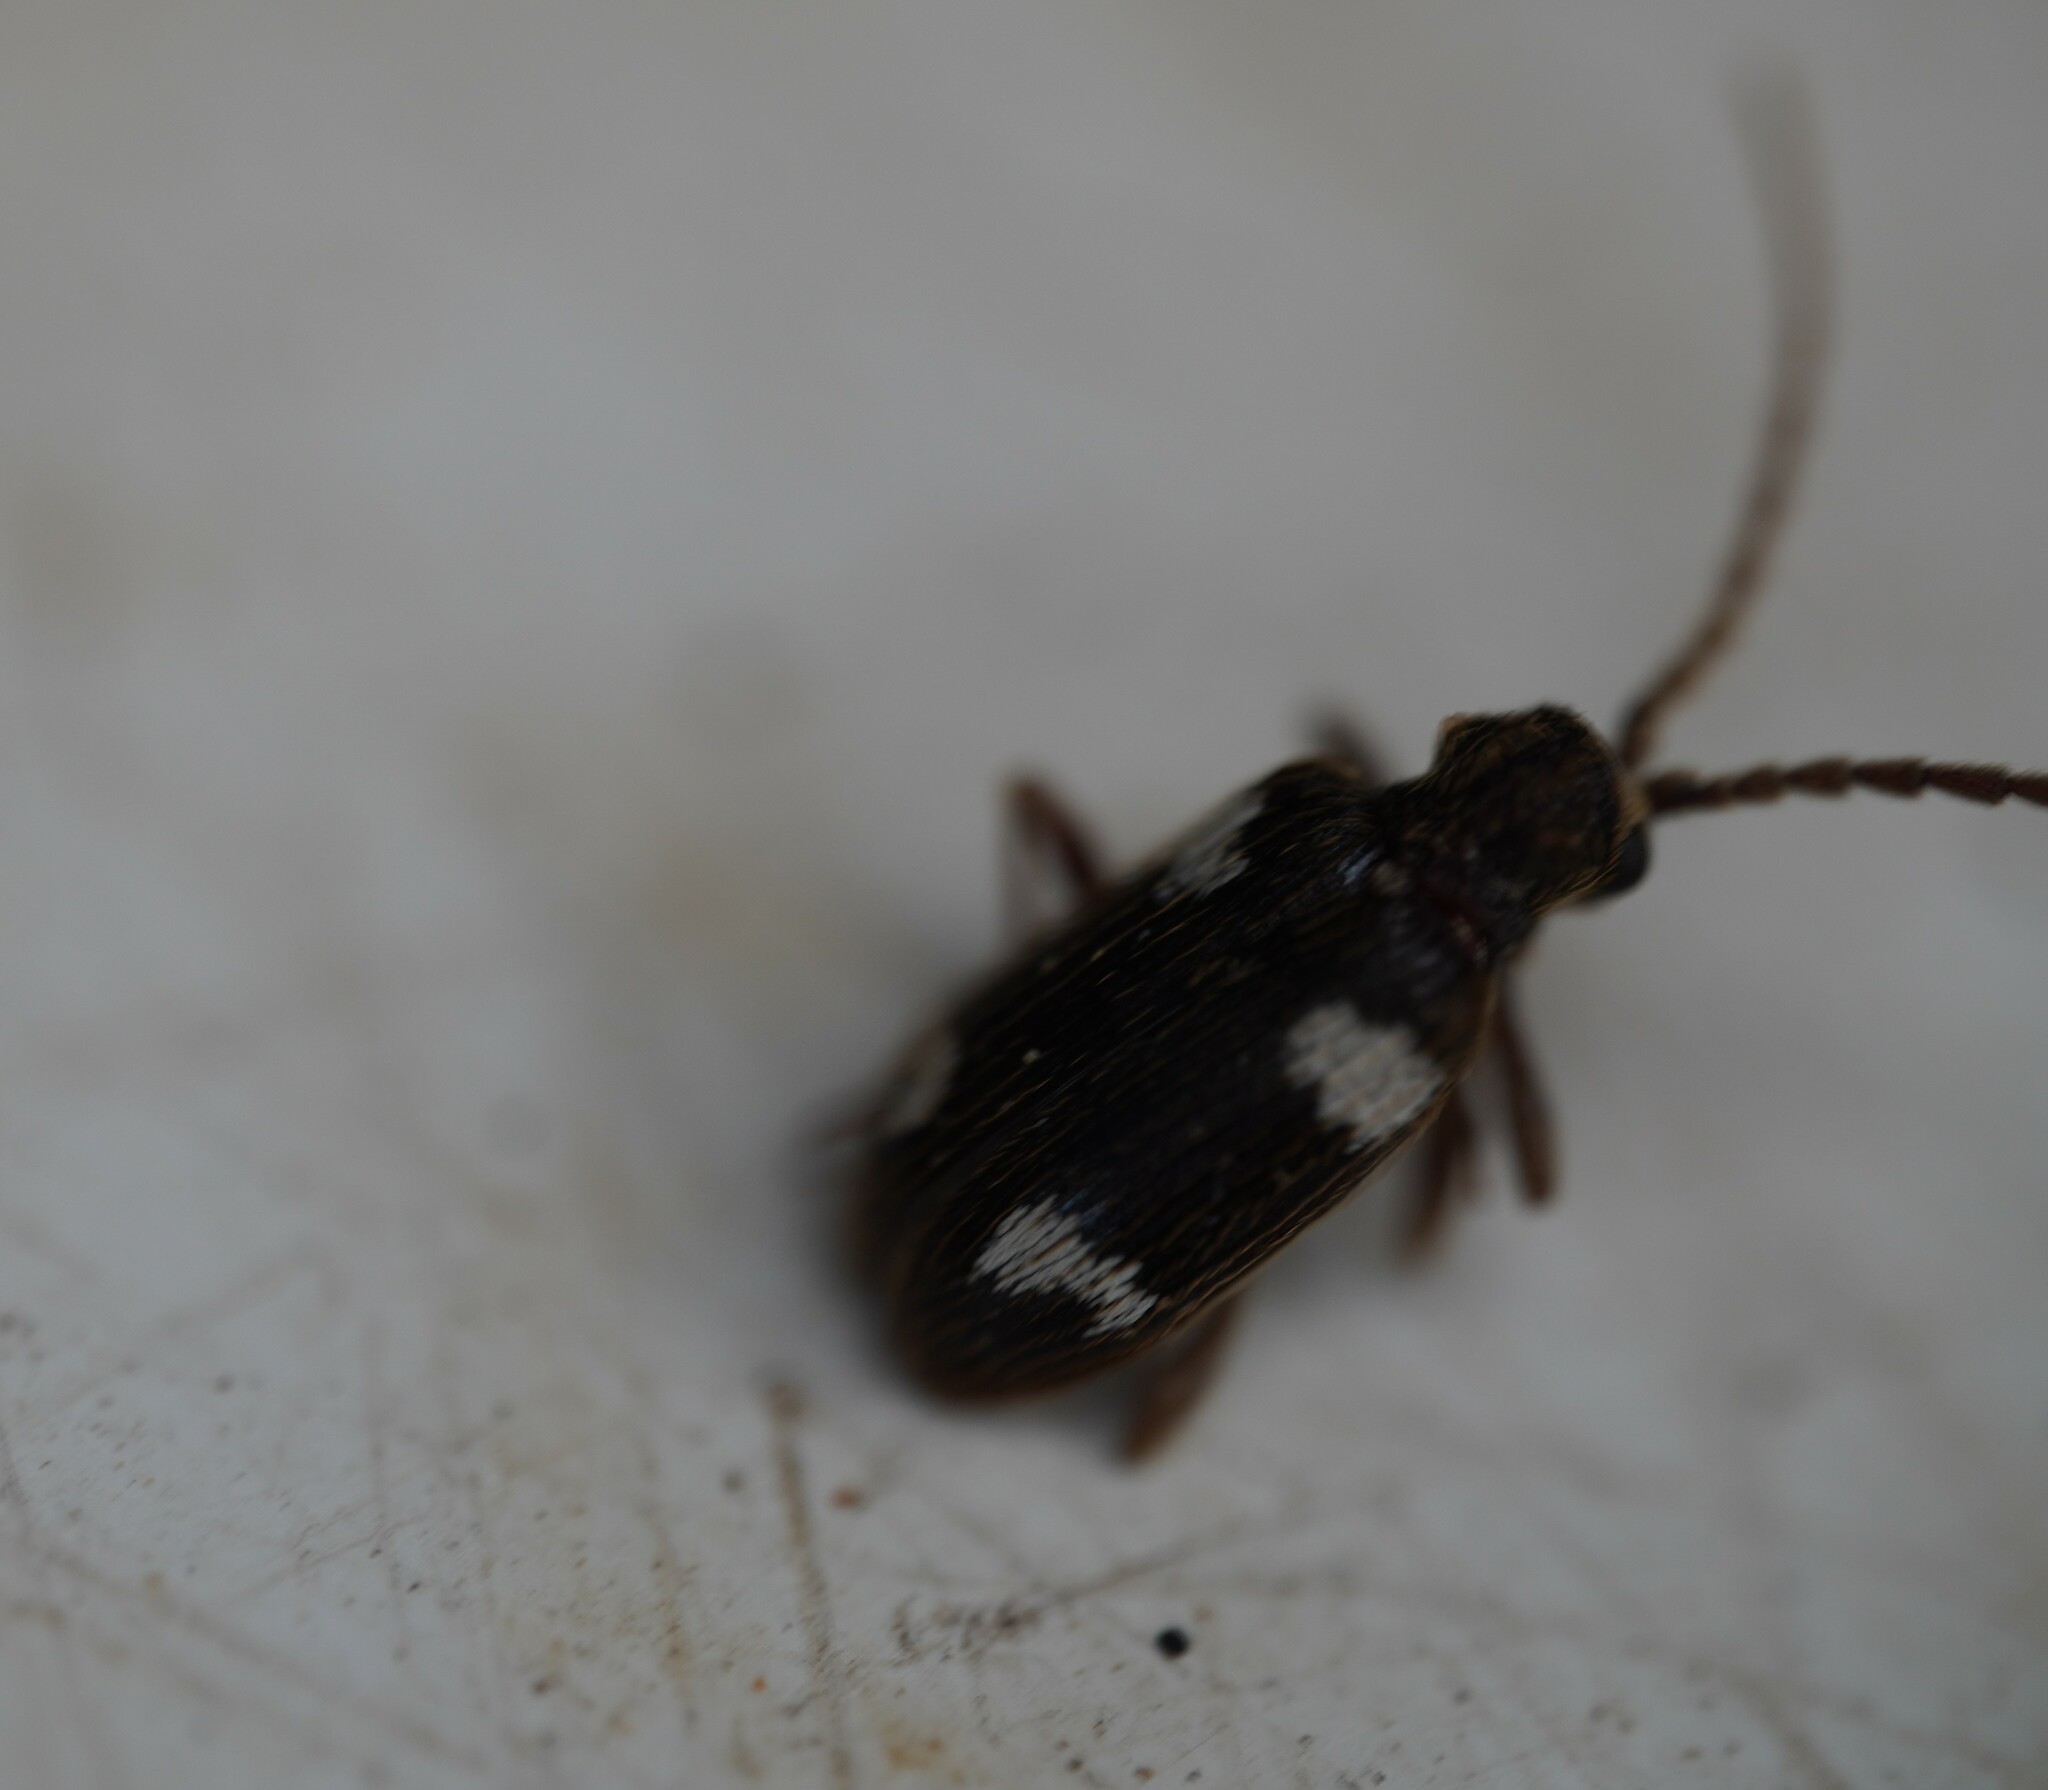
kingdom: Animalia
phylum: Arthropoda
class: Insecta
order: Coleoptera
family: Ptinidae
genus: Ptinus
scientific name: Ptinus sexpunctatus
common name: Six-spotted spider beetle
